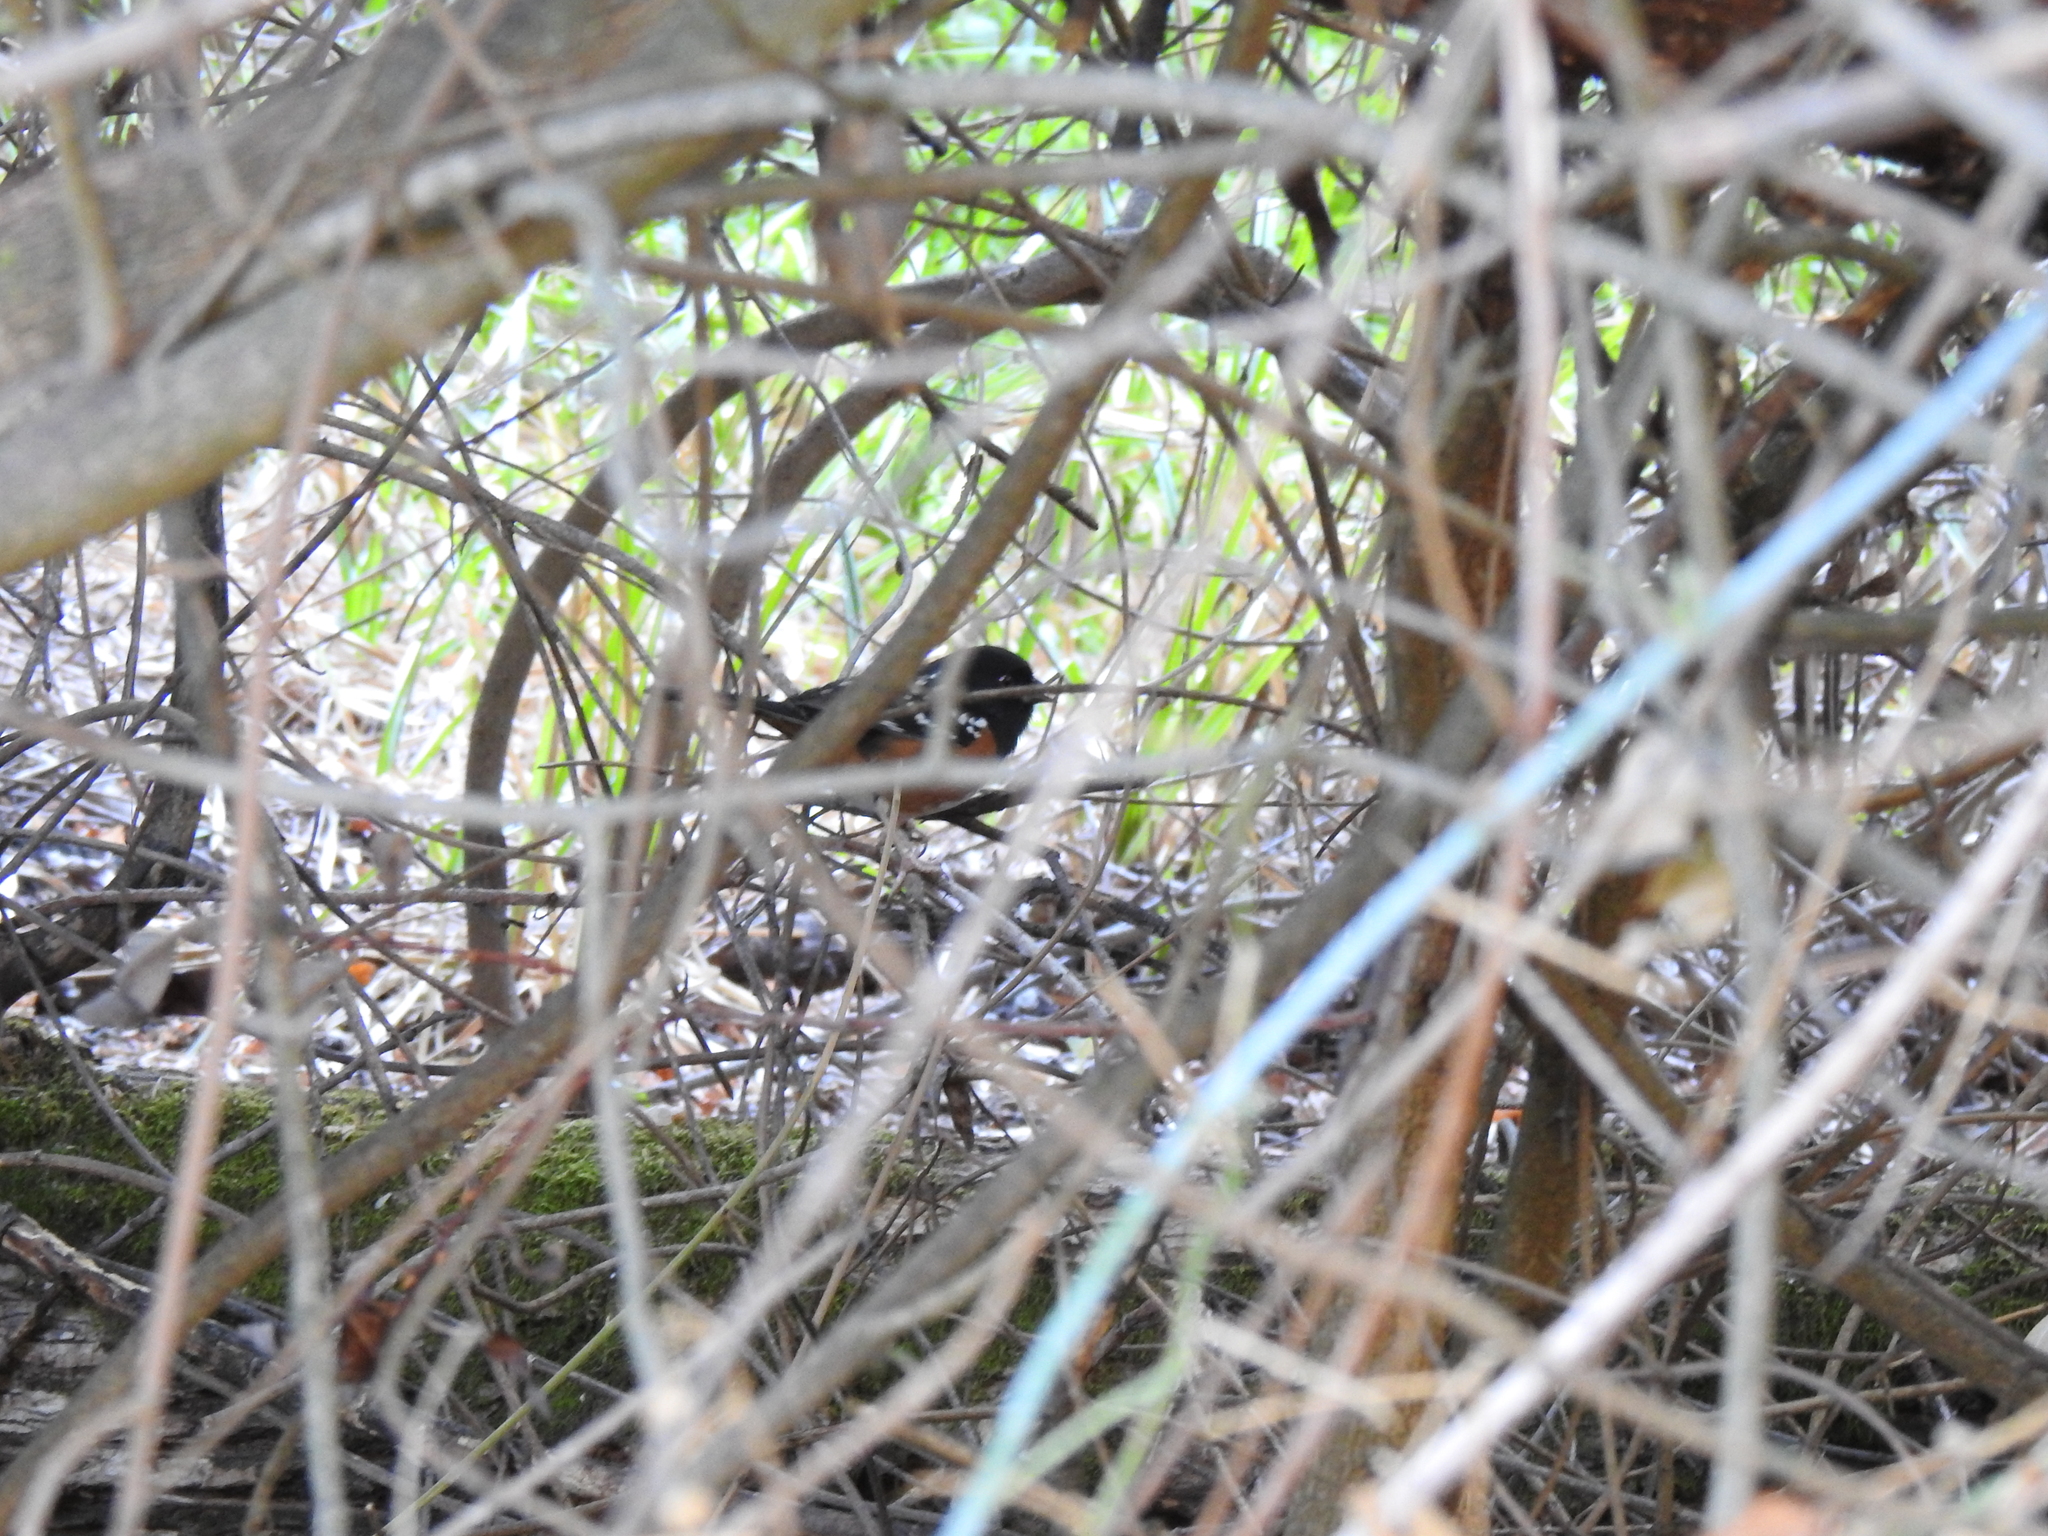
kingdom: Animalia
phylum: Chordata
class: Aves
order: Passeriformes
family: Passerellidae
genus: Pipilo
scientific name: Pipilo maculatus
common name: Spotted towhee
